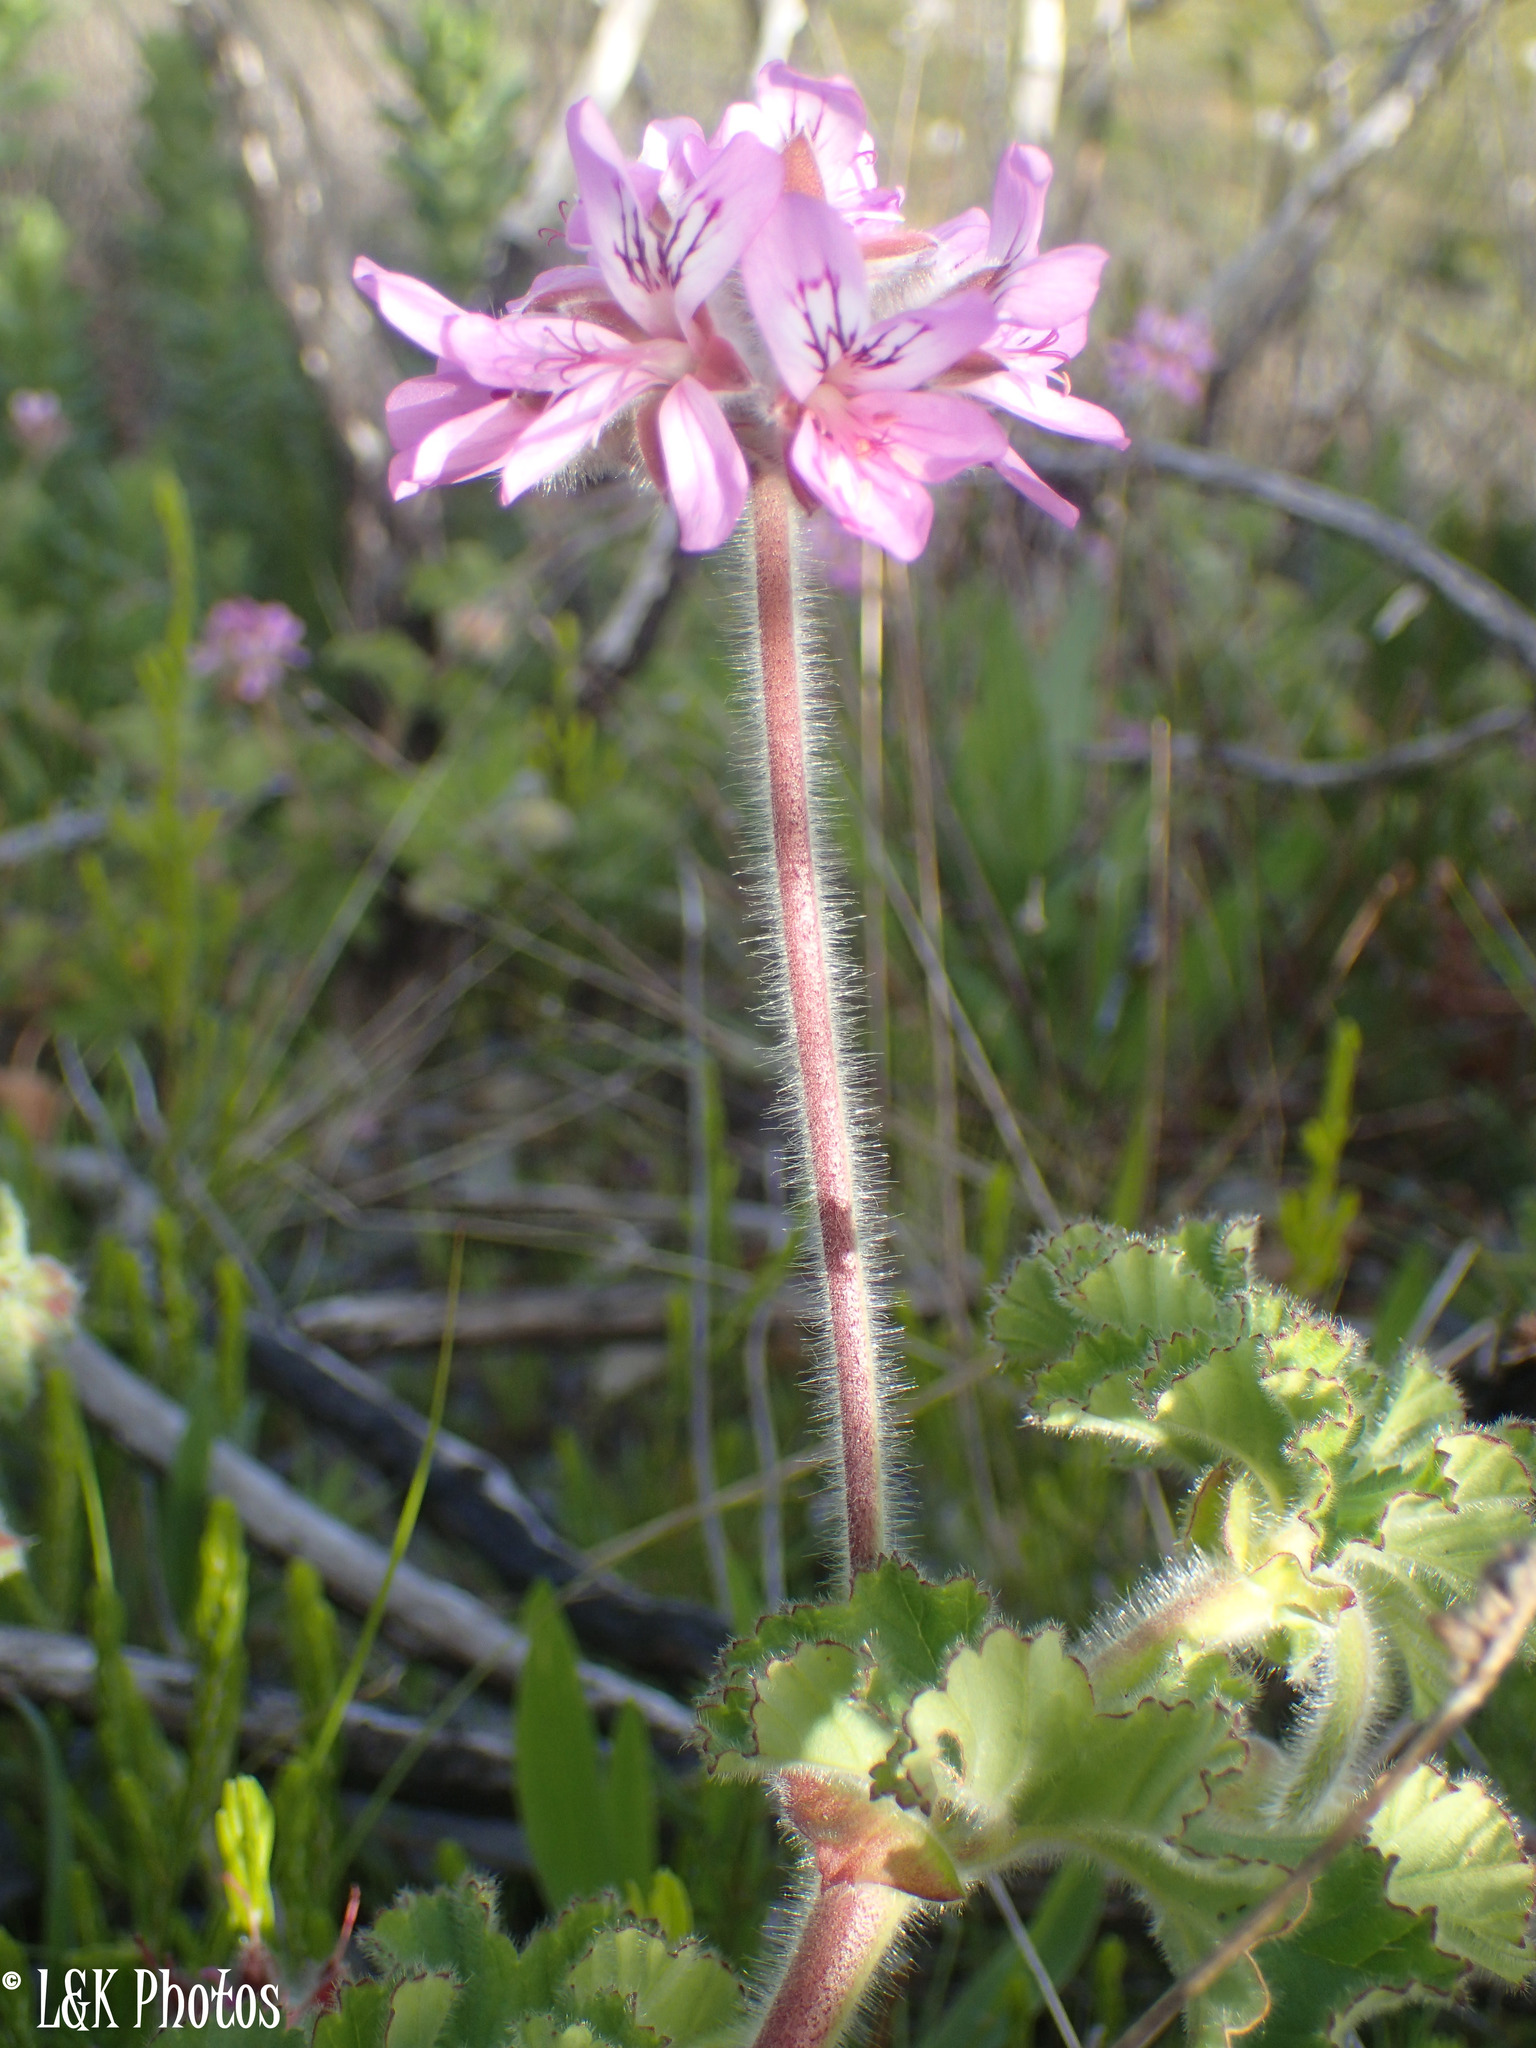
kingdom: Plantae
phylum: Tracheophyta
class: Magnoliopsida
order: Geraniales
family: Geraniaceae
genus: Pelargonium
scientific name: Pelargonium capitatum
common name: Rose scented geranium
